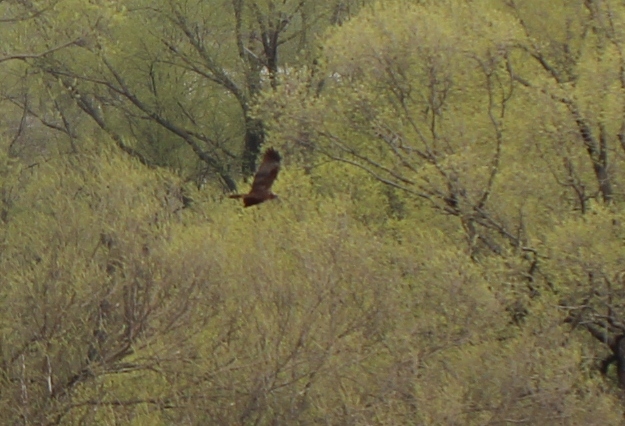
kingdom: Animalia
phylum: Chordata
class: Aves
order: Accipitriformes
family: Accipitridae
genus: Buteo
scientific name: Buteo buteo
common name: Common buzzard
